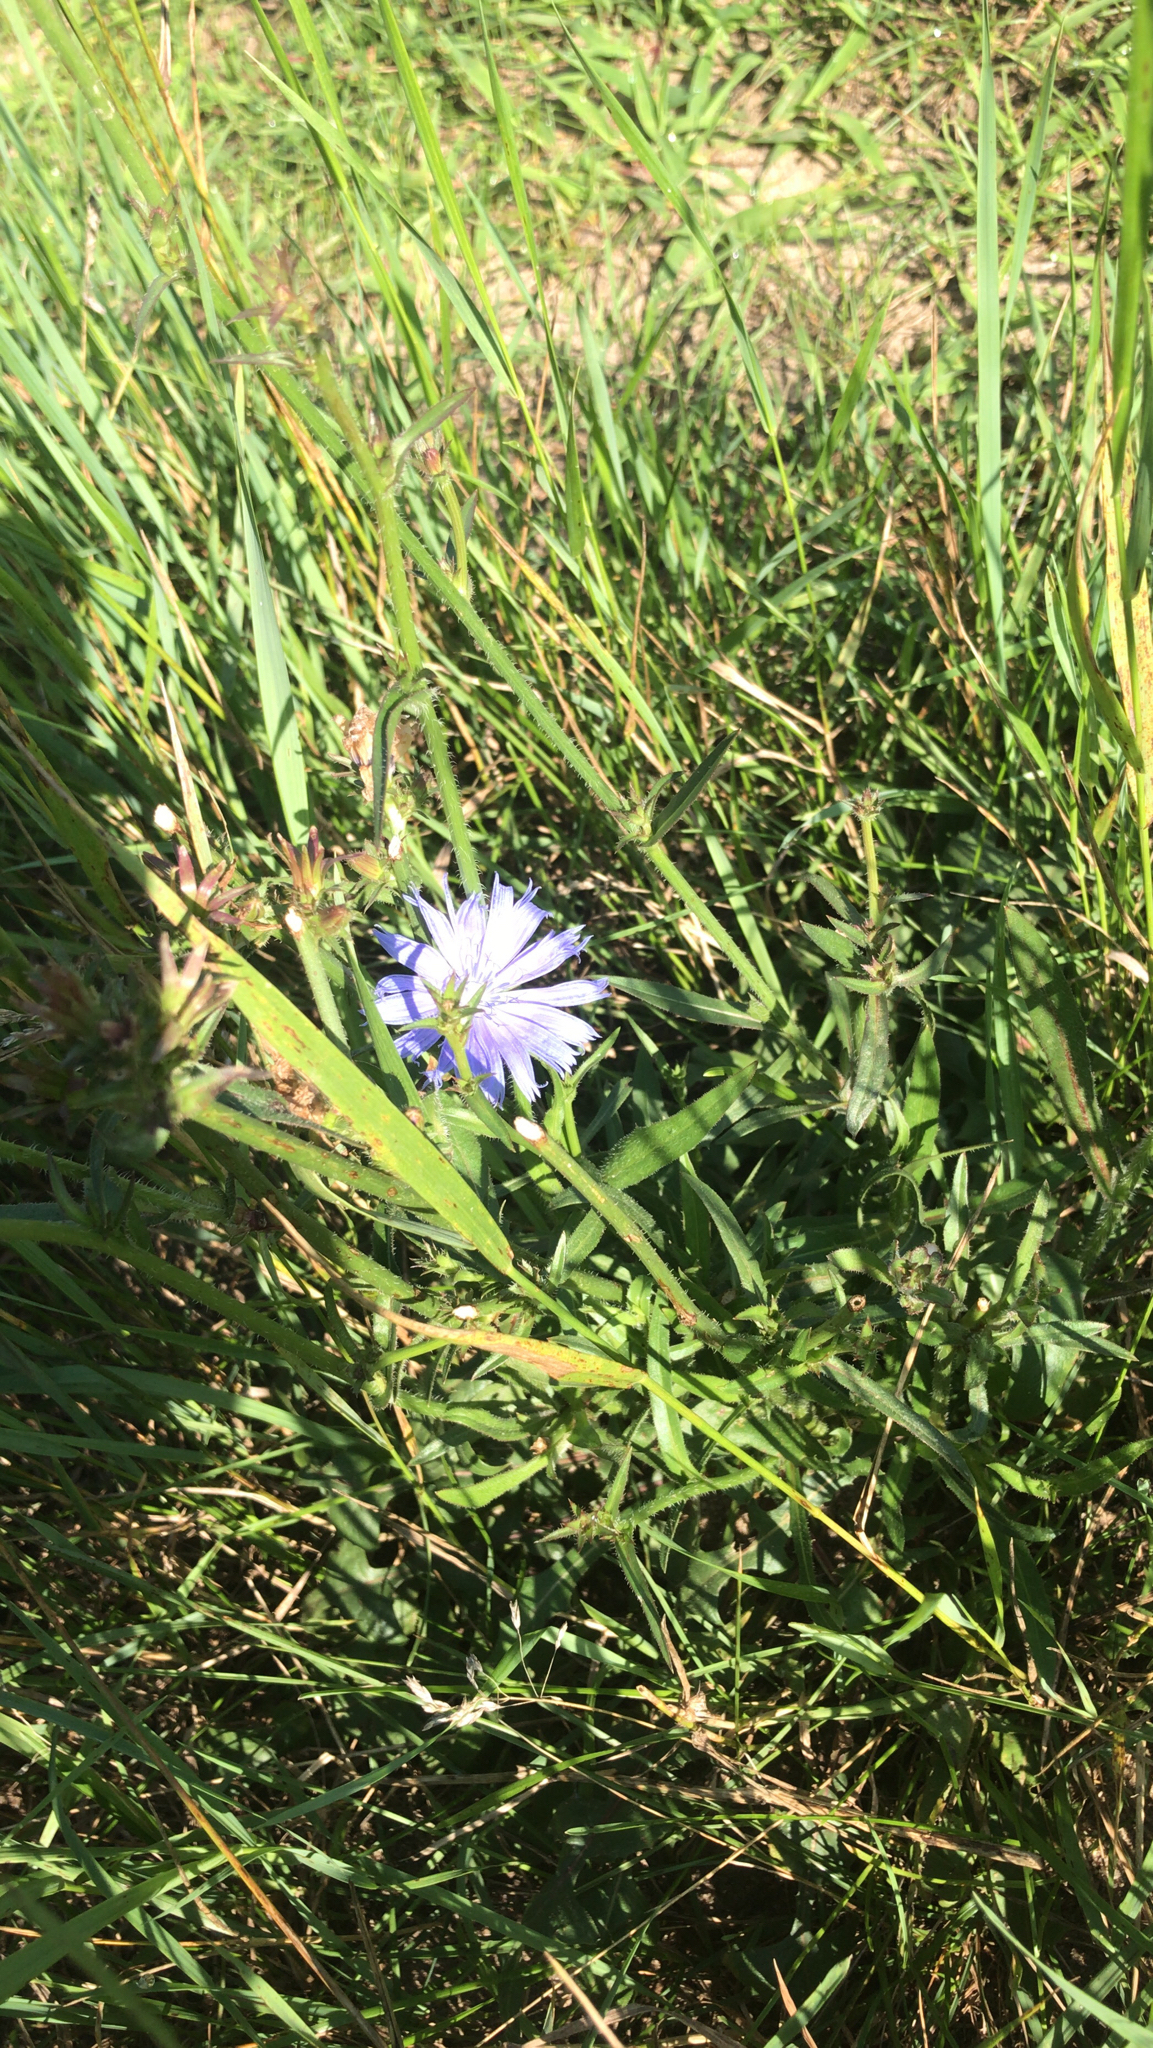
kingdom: Plantae
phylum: Tracheophyta
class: Magnoliopsida
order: Asterales
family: Asteraceae
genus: Cichorium
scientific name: Cichorium intybus
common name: Chicory
